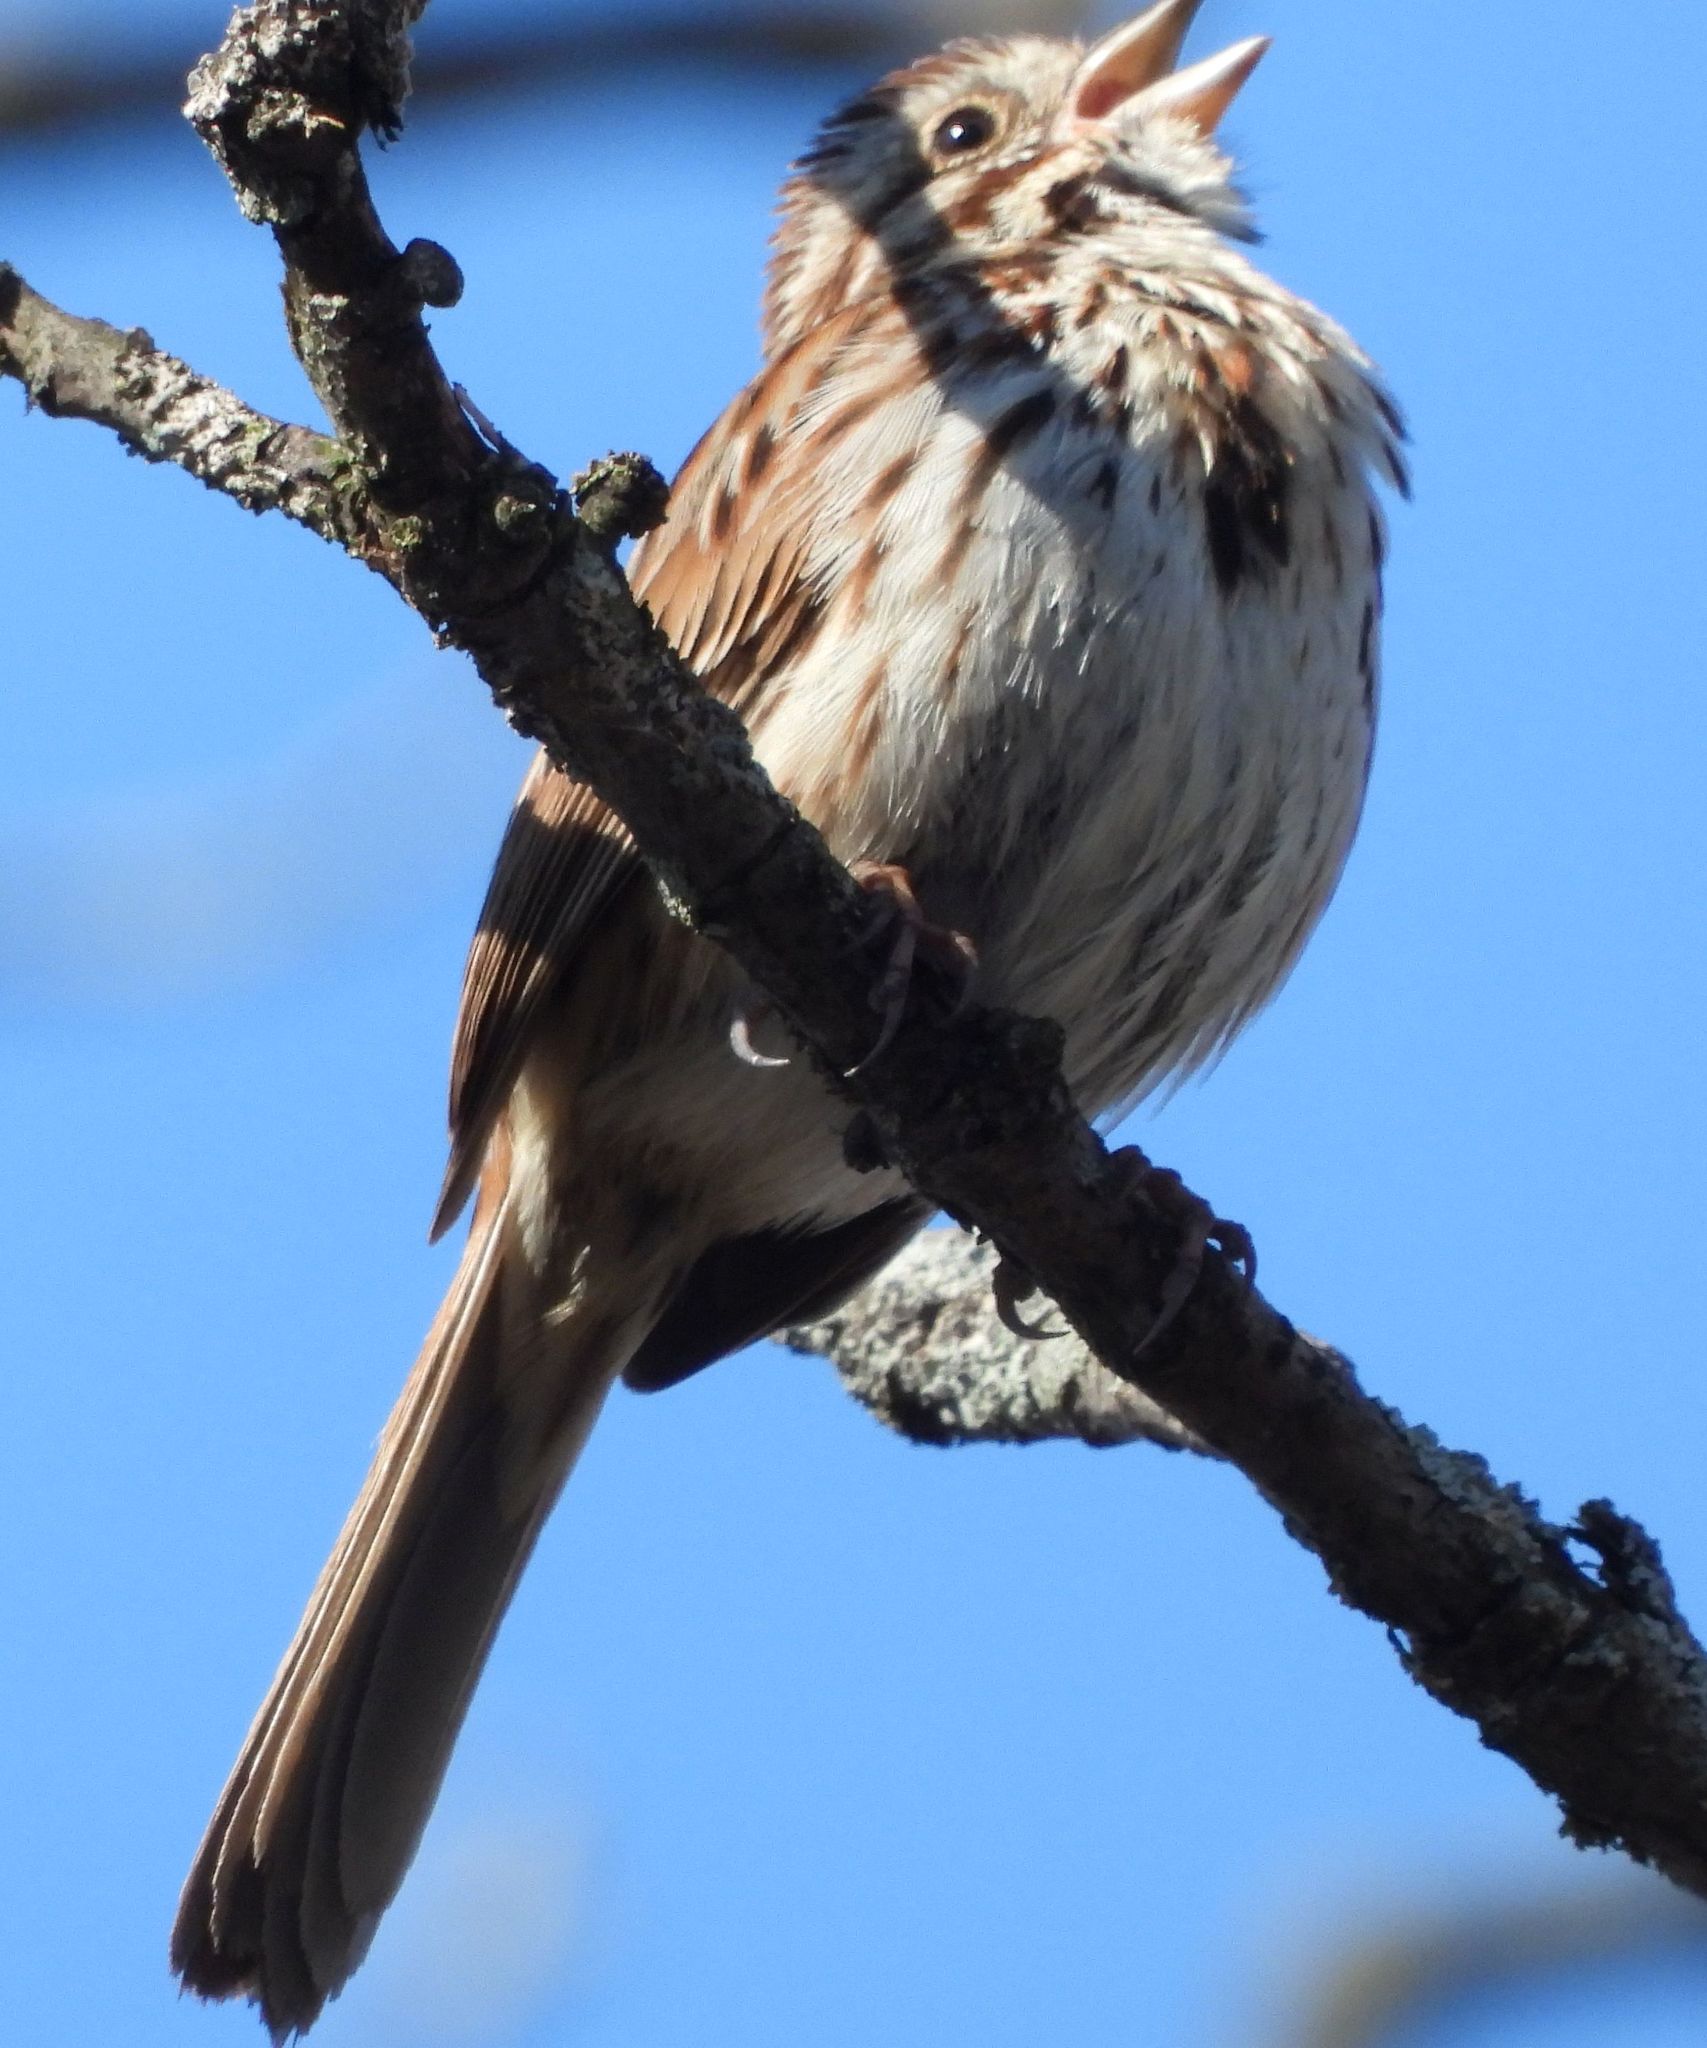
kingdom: Animalia
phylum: Chordata
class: Aves
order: Passeriformes
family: Passerellidae
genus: Melospiza
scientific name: Melospiza melodia
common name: Song sparrow
